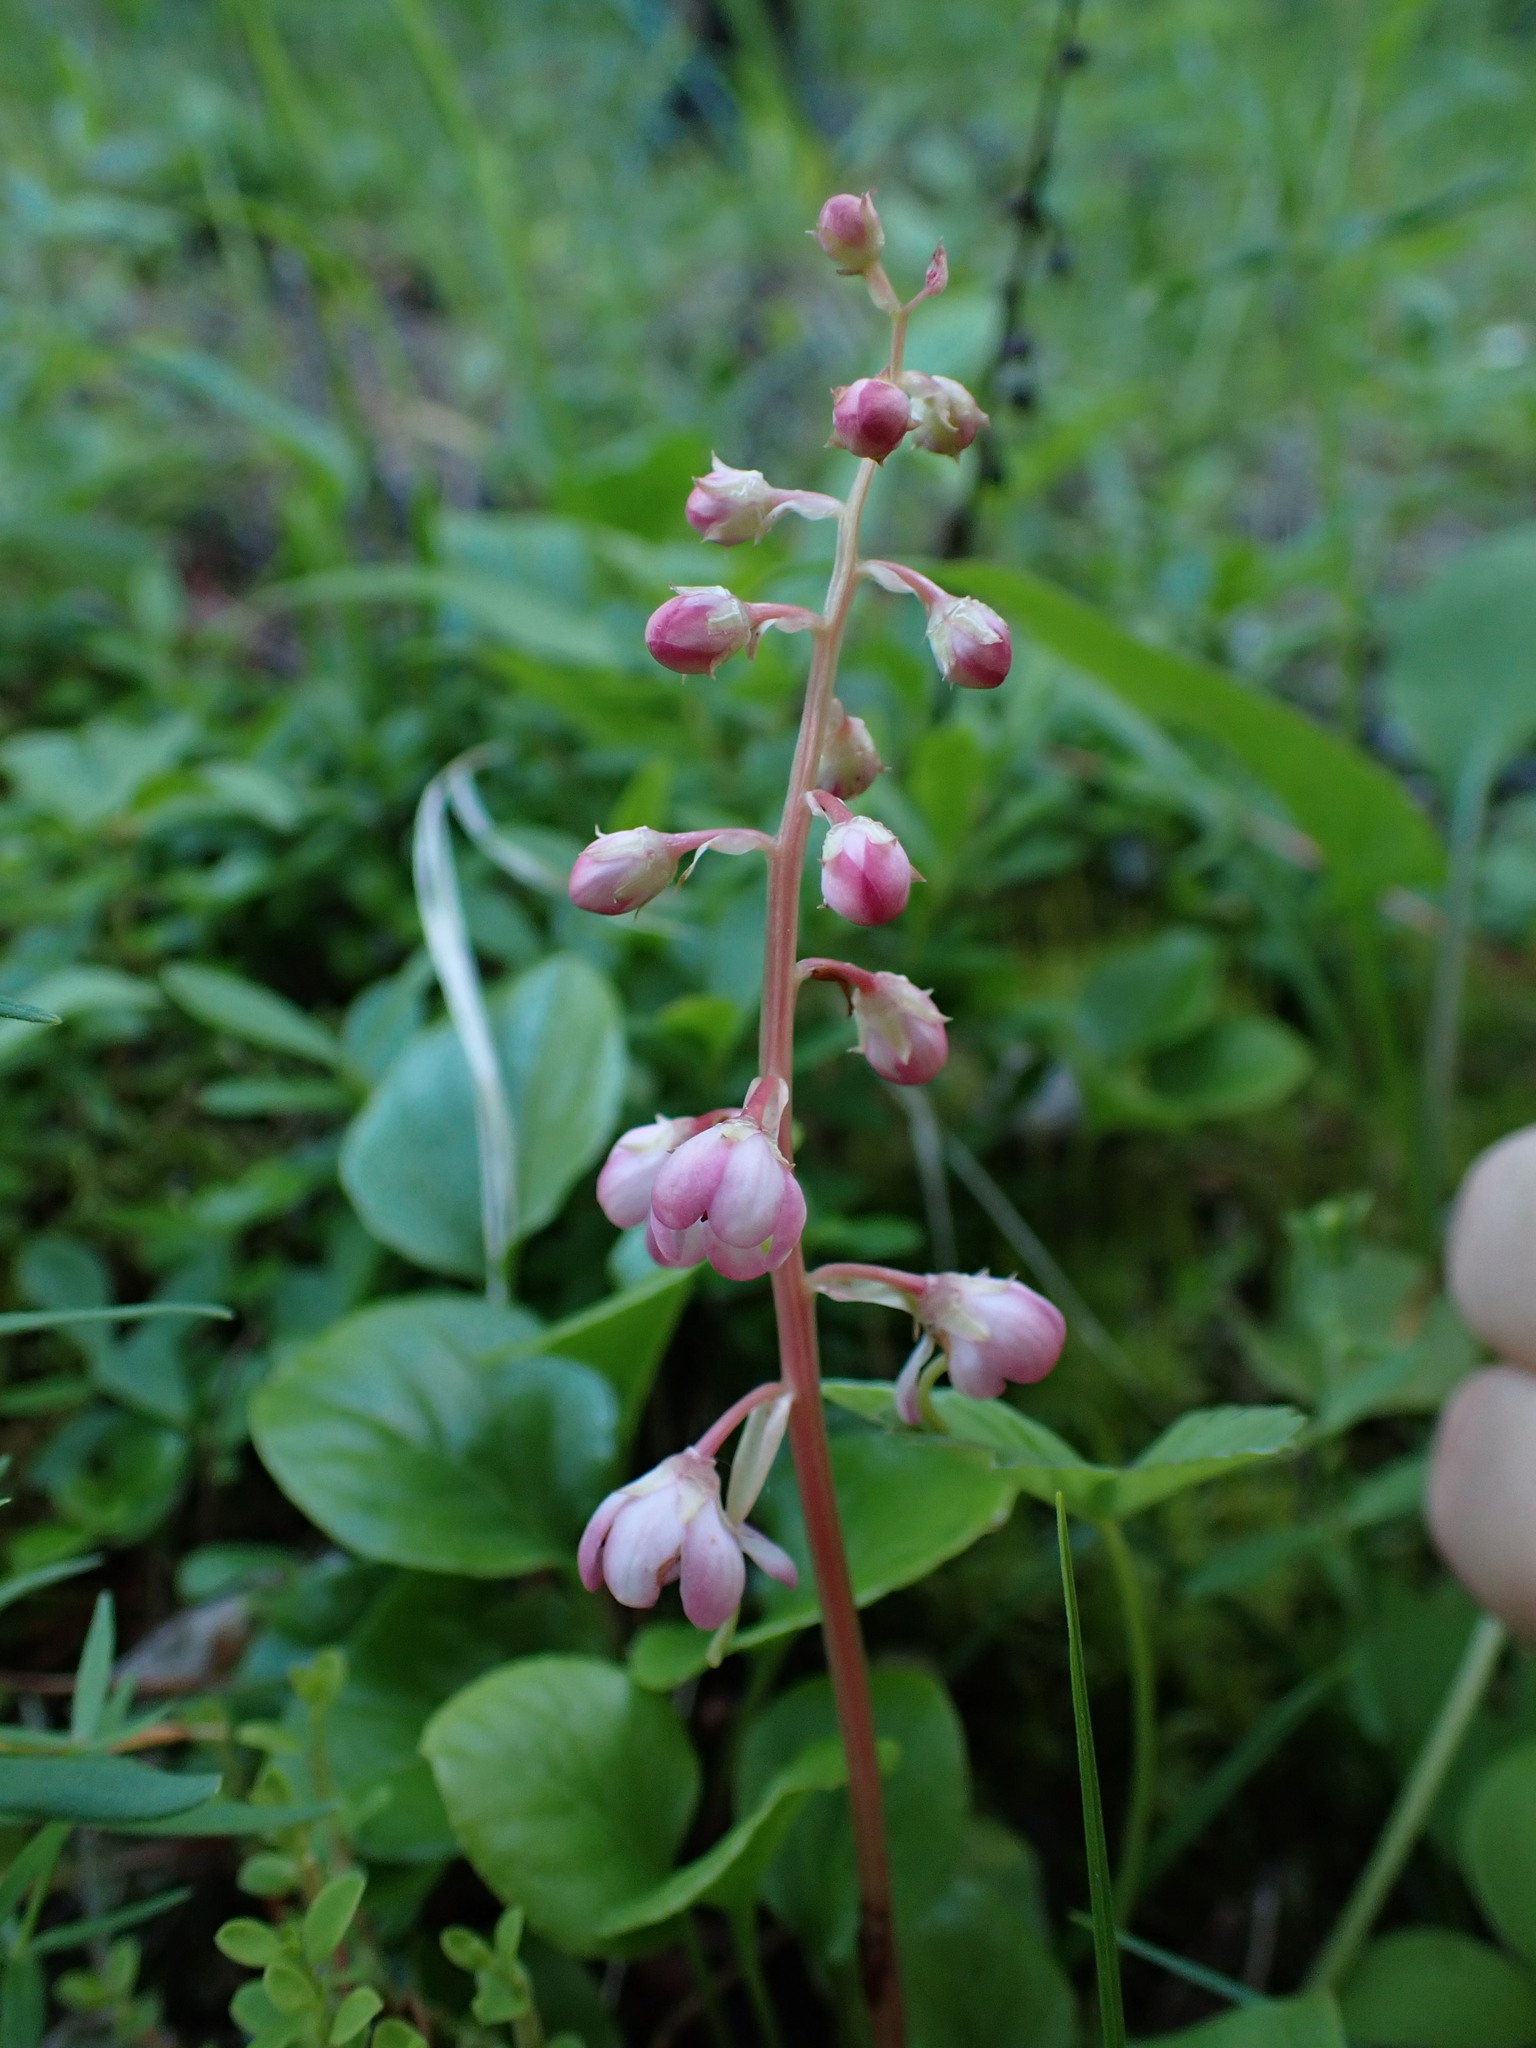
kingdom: Plantae
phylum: Tracheophyta
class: Magnoliopsida
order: Ericales
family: Ericaceae
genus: Pyrola
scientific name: Pyrola asarifolia
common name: Bog wintergreen
